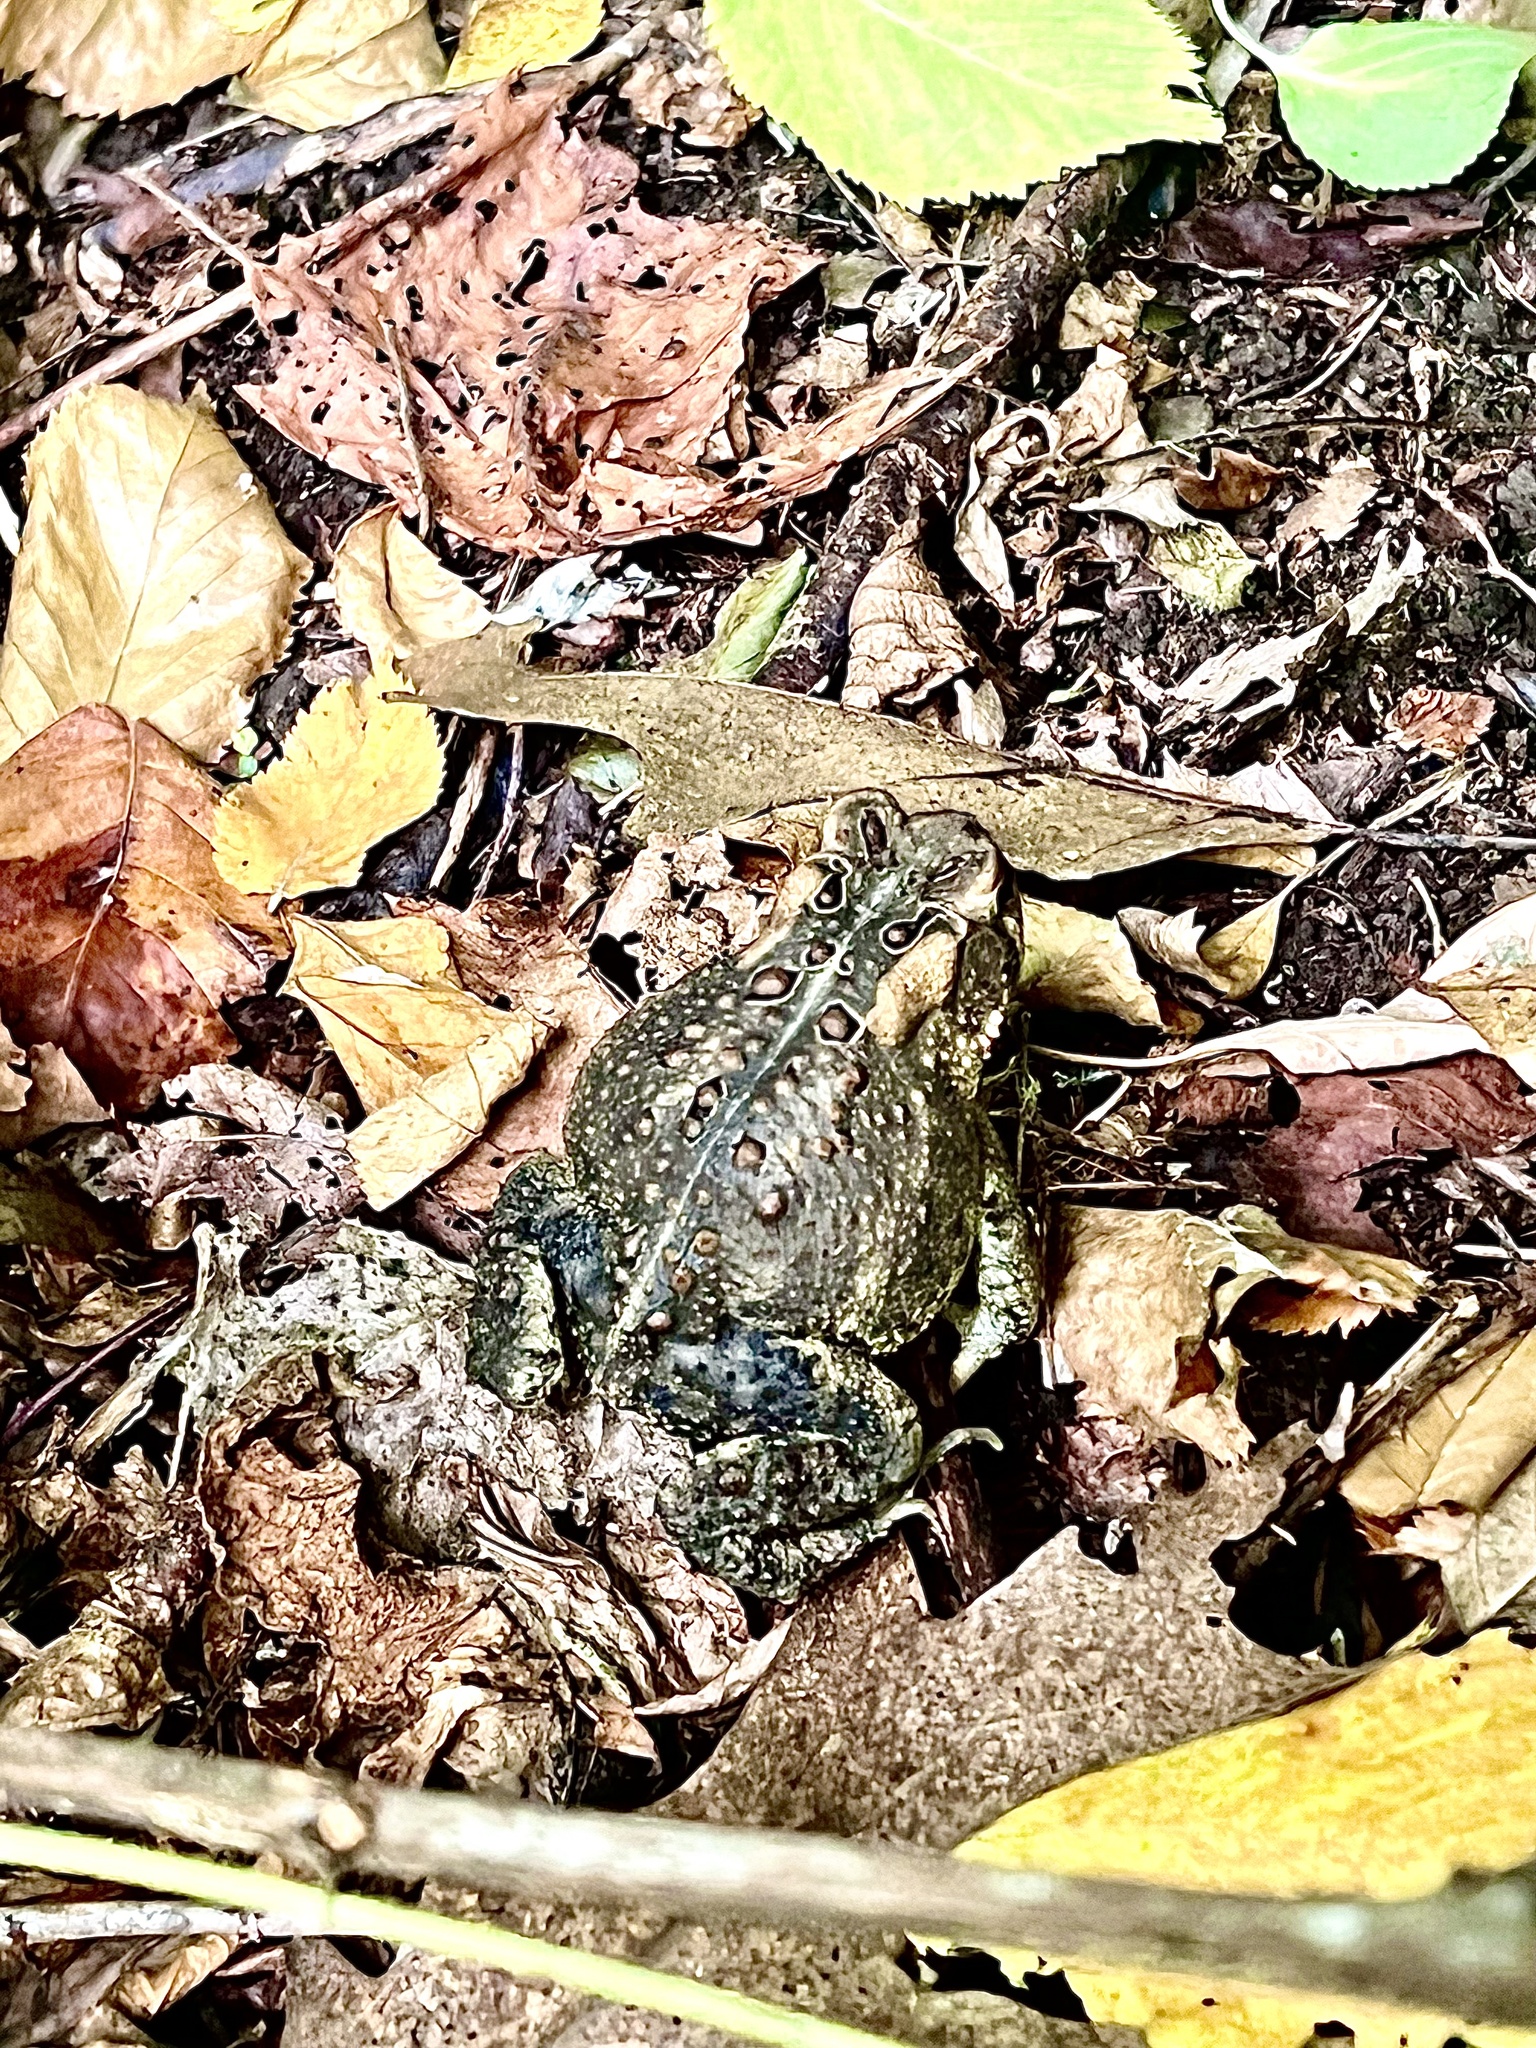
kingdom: Animalia
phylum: Chordata
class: Amphibia
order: Anura
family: Bufonidae
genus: Anaxyrus
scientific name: Anaxyrus americanus
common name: American toad
